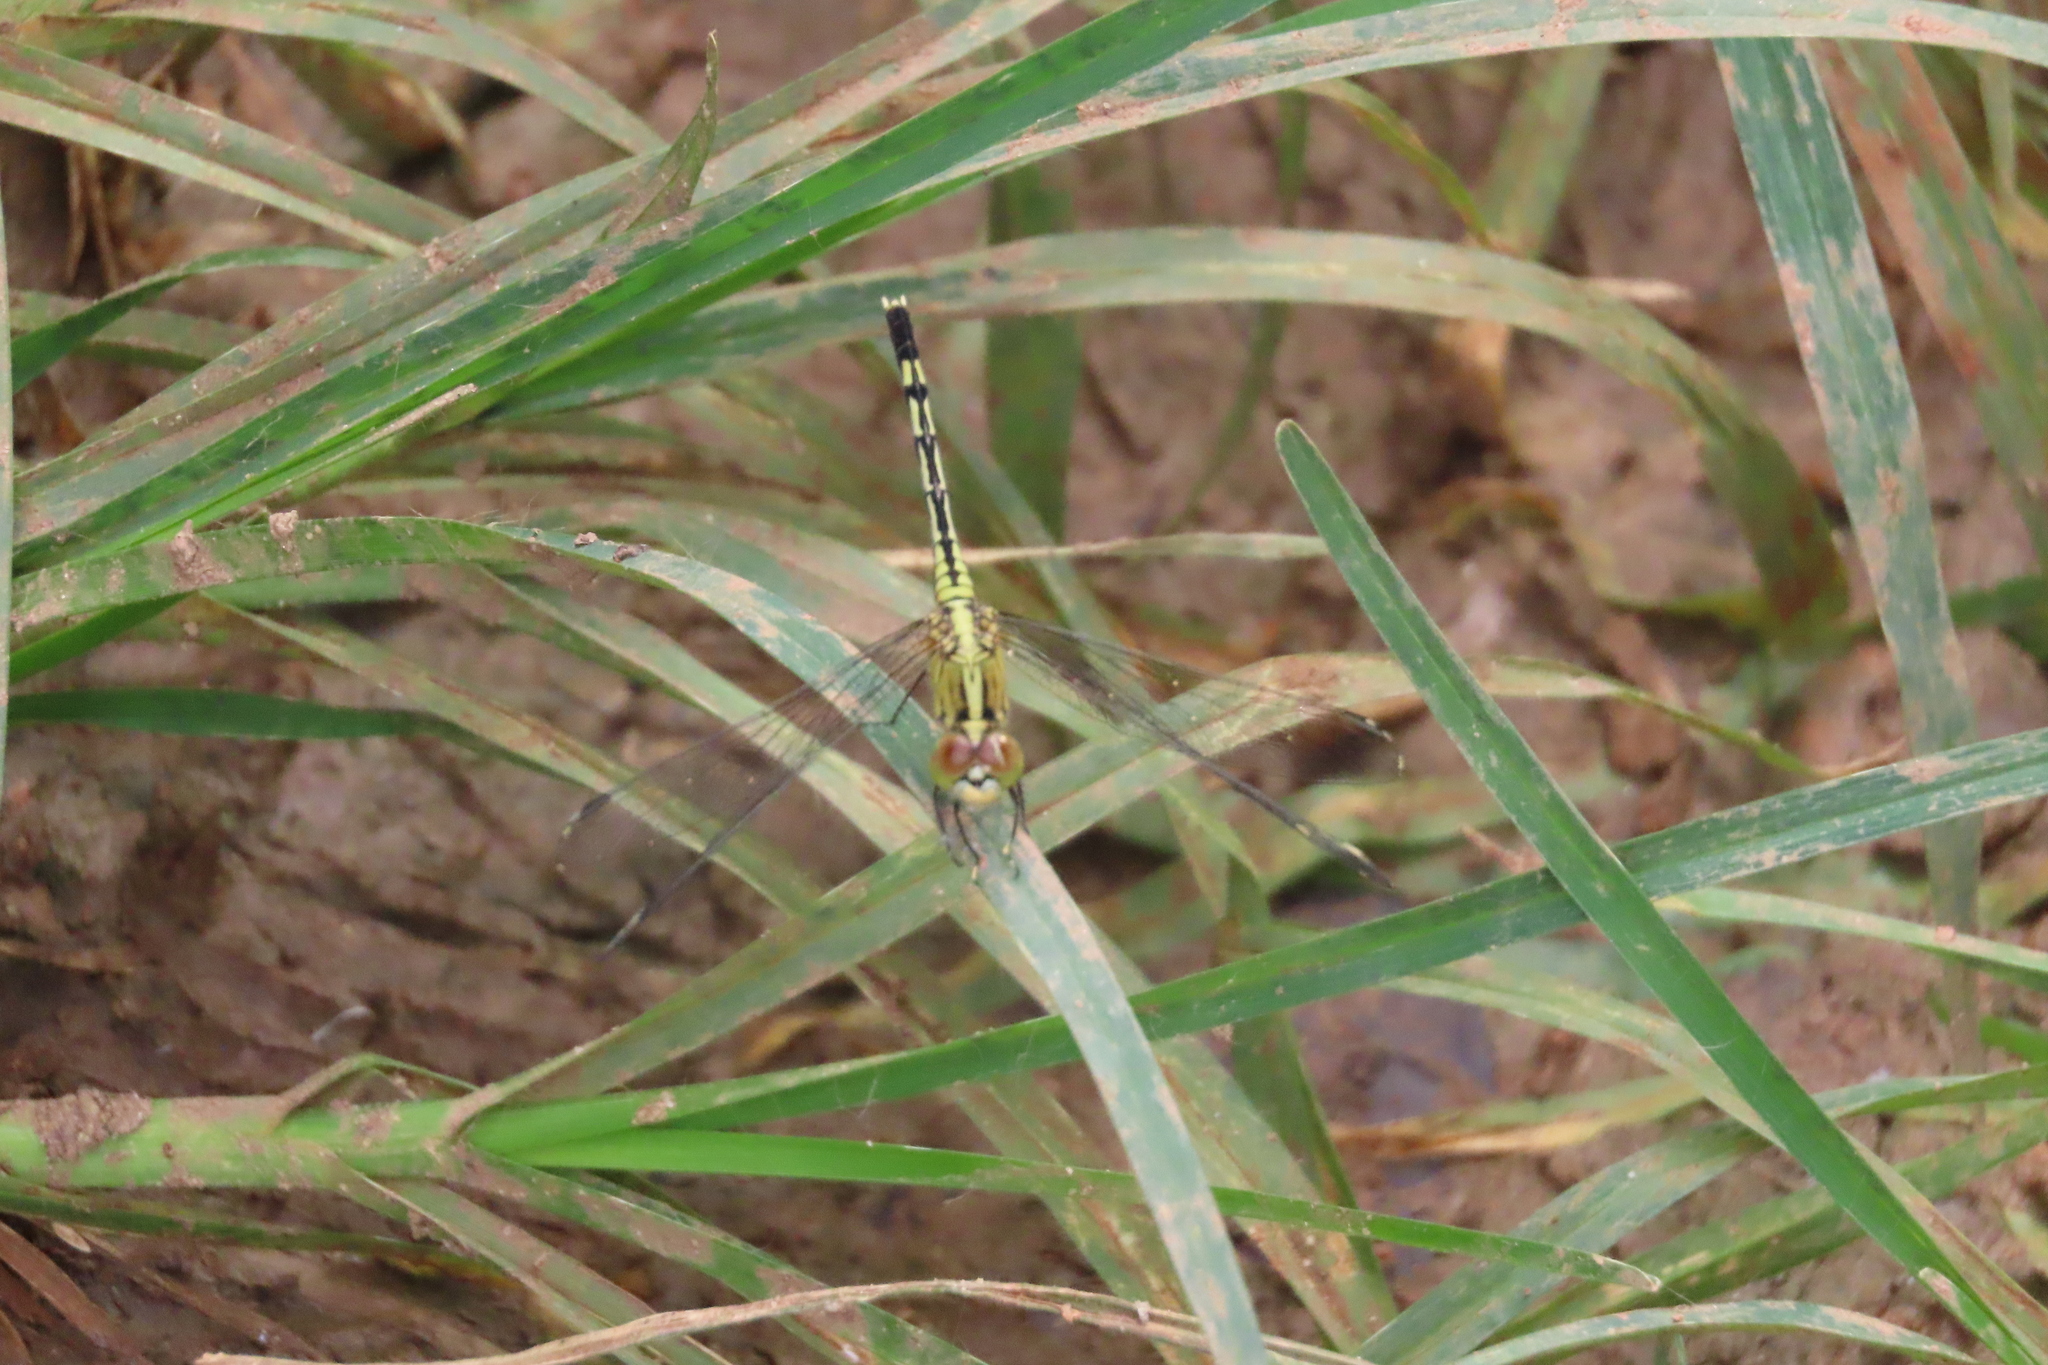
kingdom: Animalia
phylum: Arthropoda
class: Insecta
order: Odonata
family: Libellulidae
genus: Diplacodes
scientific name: Diplacodes trivialis
